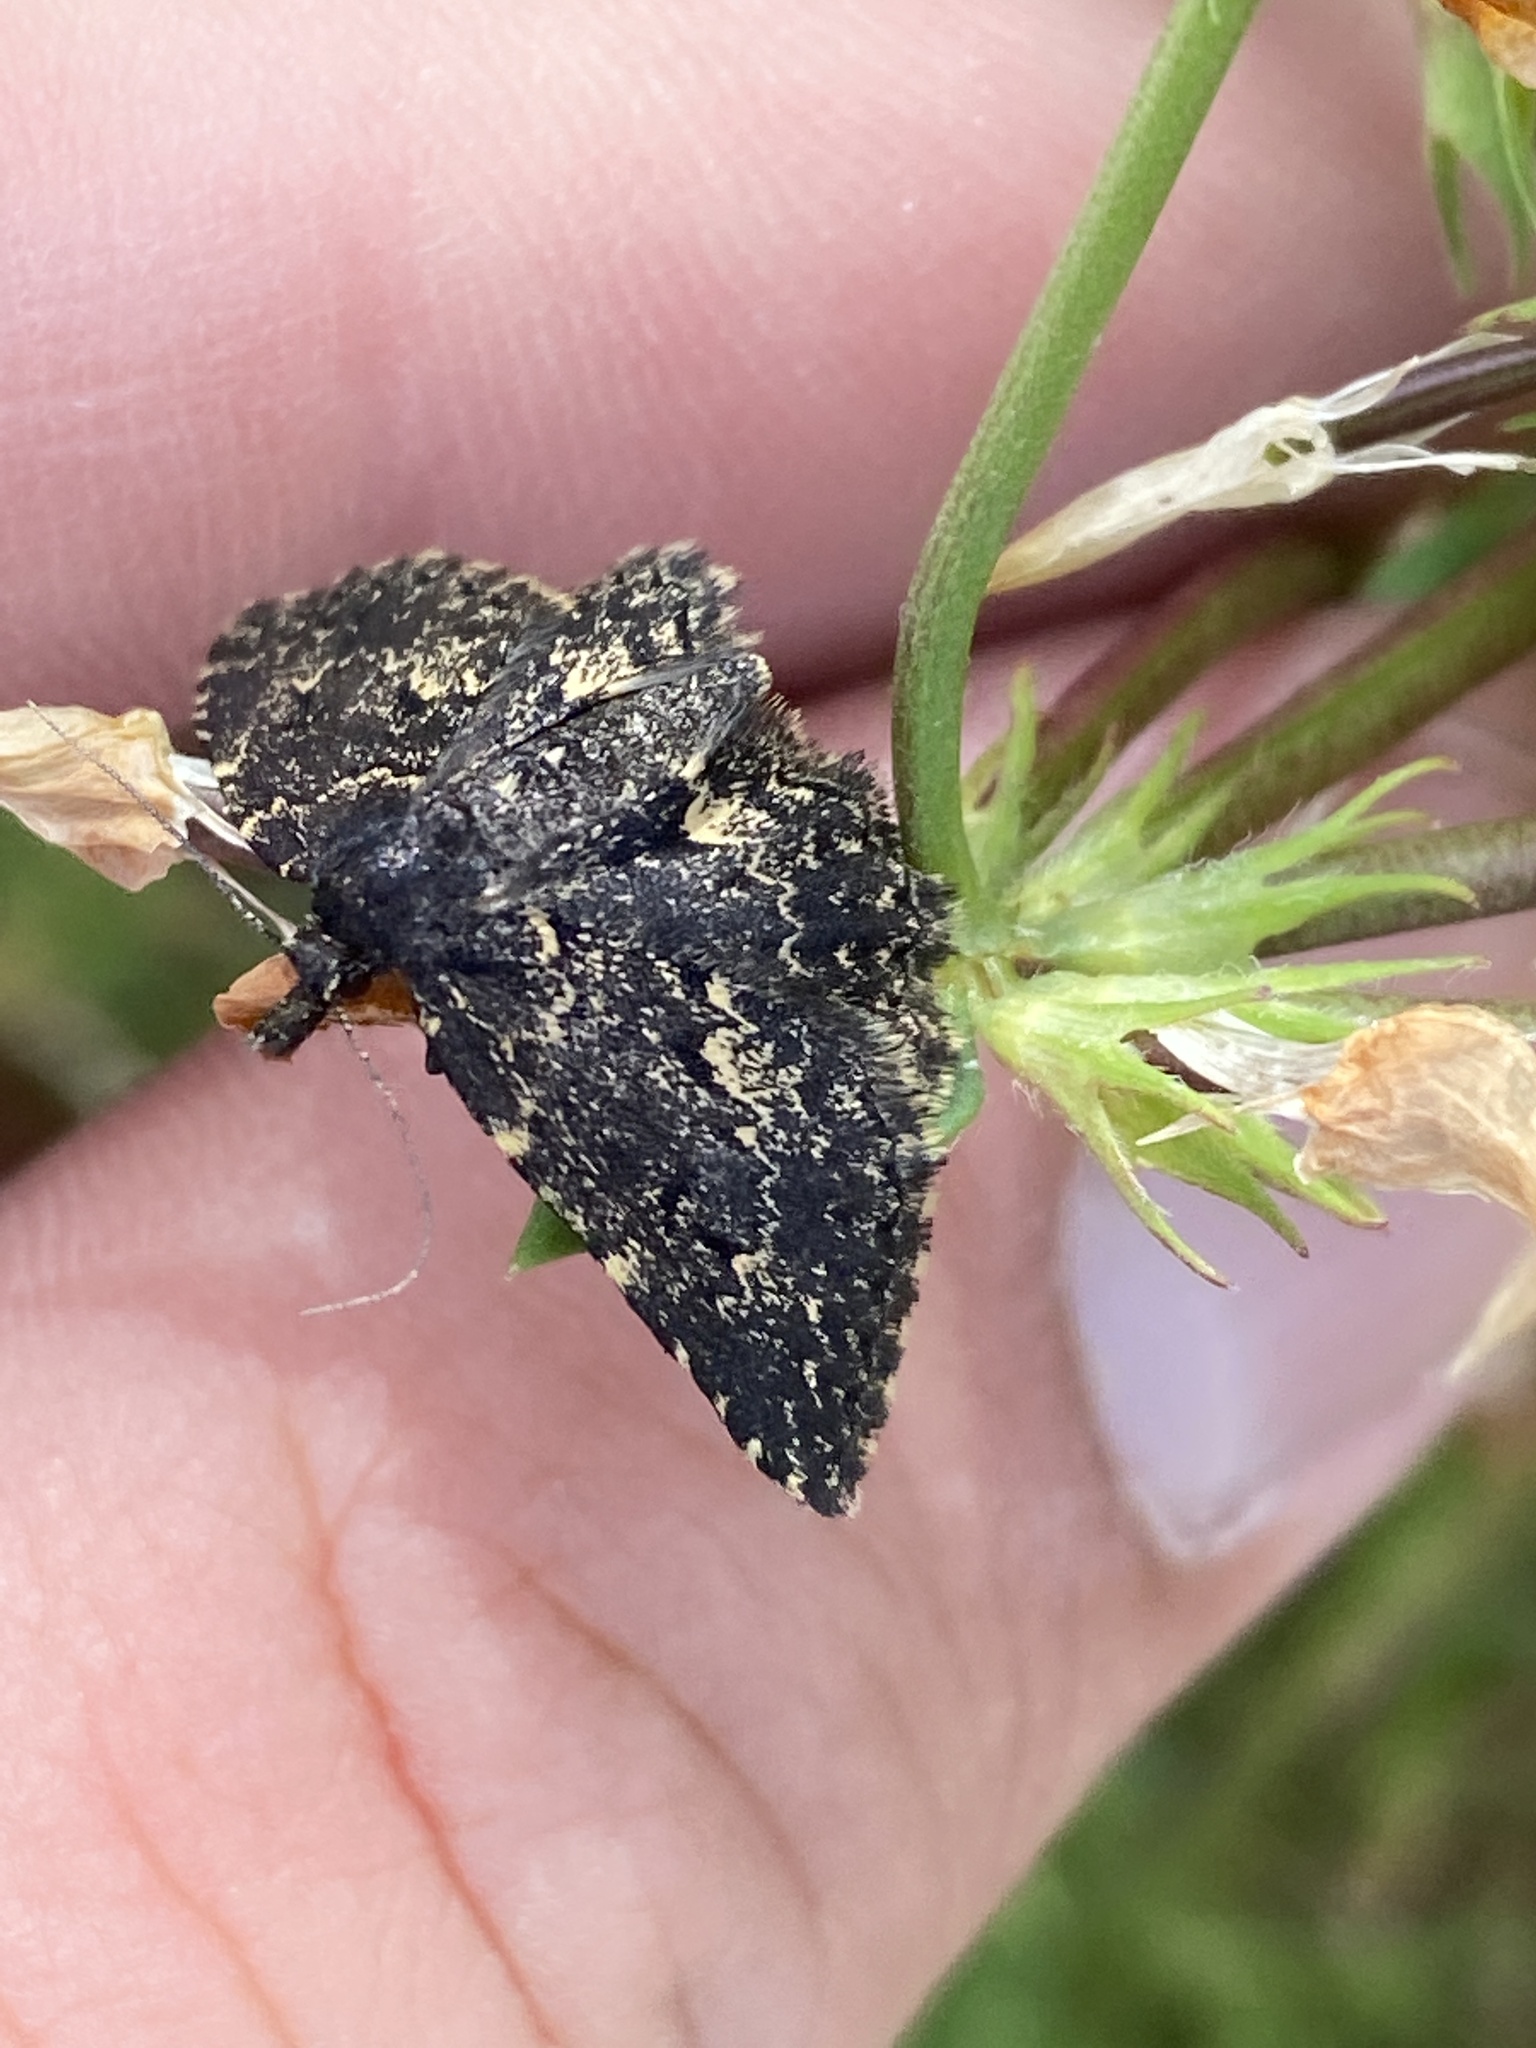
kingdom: Animalia
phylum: Arthropoda
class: Insecta
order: Lepidoptera
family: Erebidae
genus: Parascotia
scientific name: Parascotia fuliginaria
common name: Waved black
